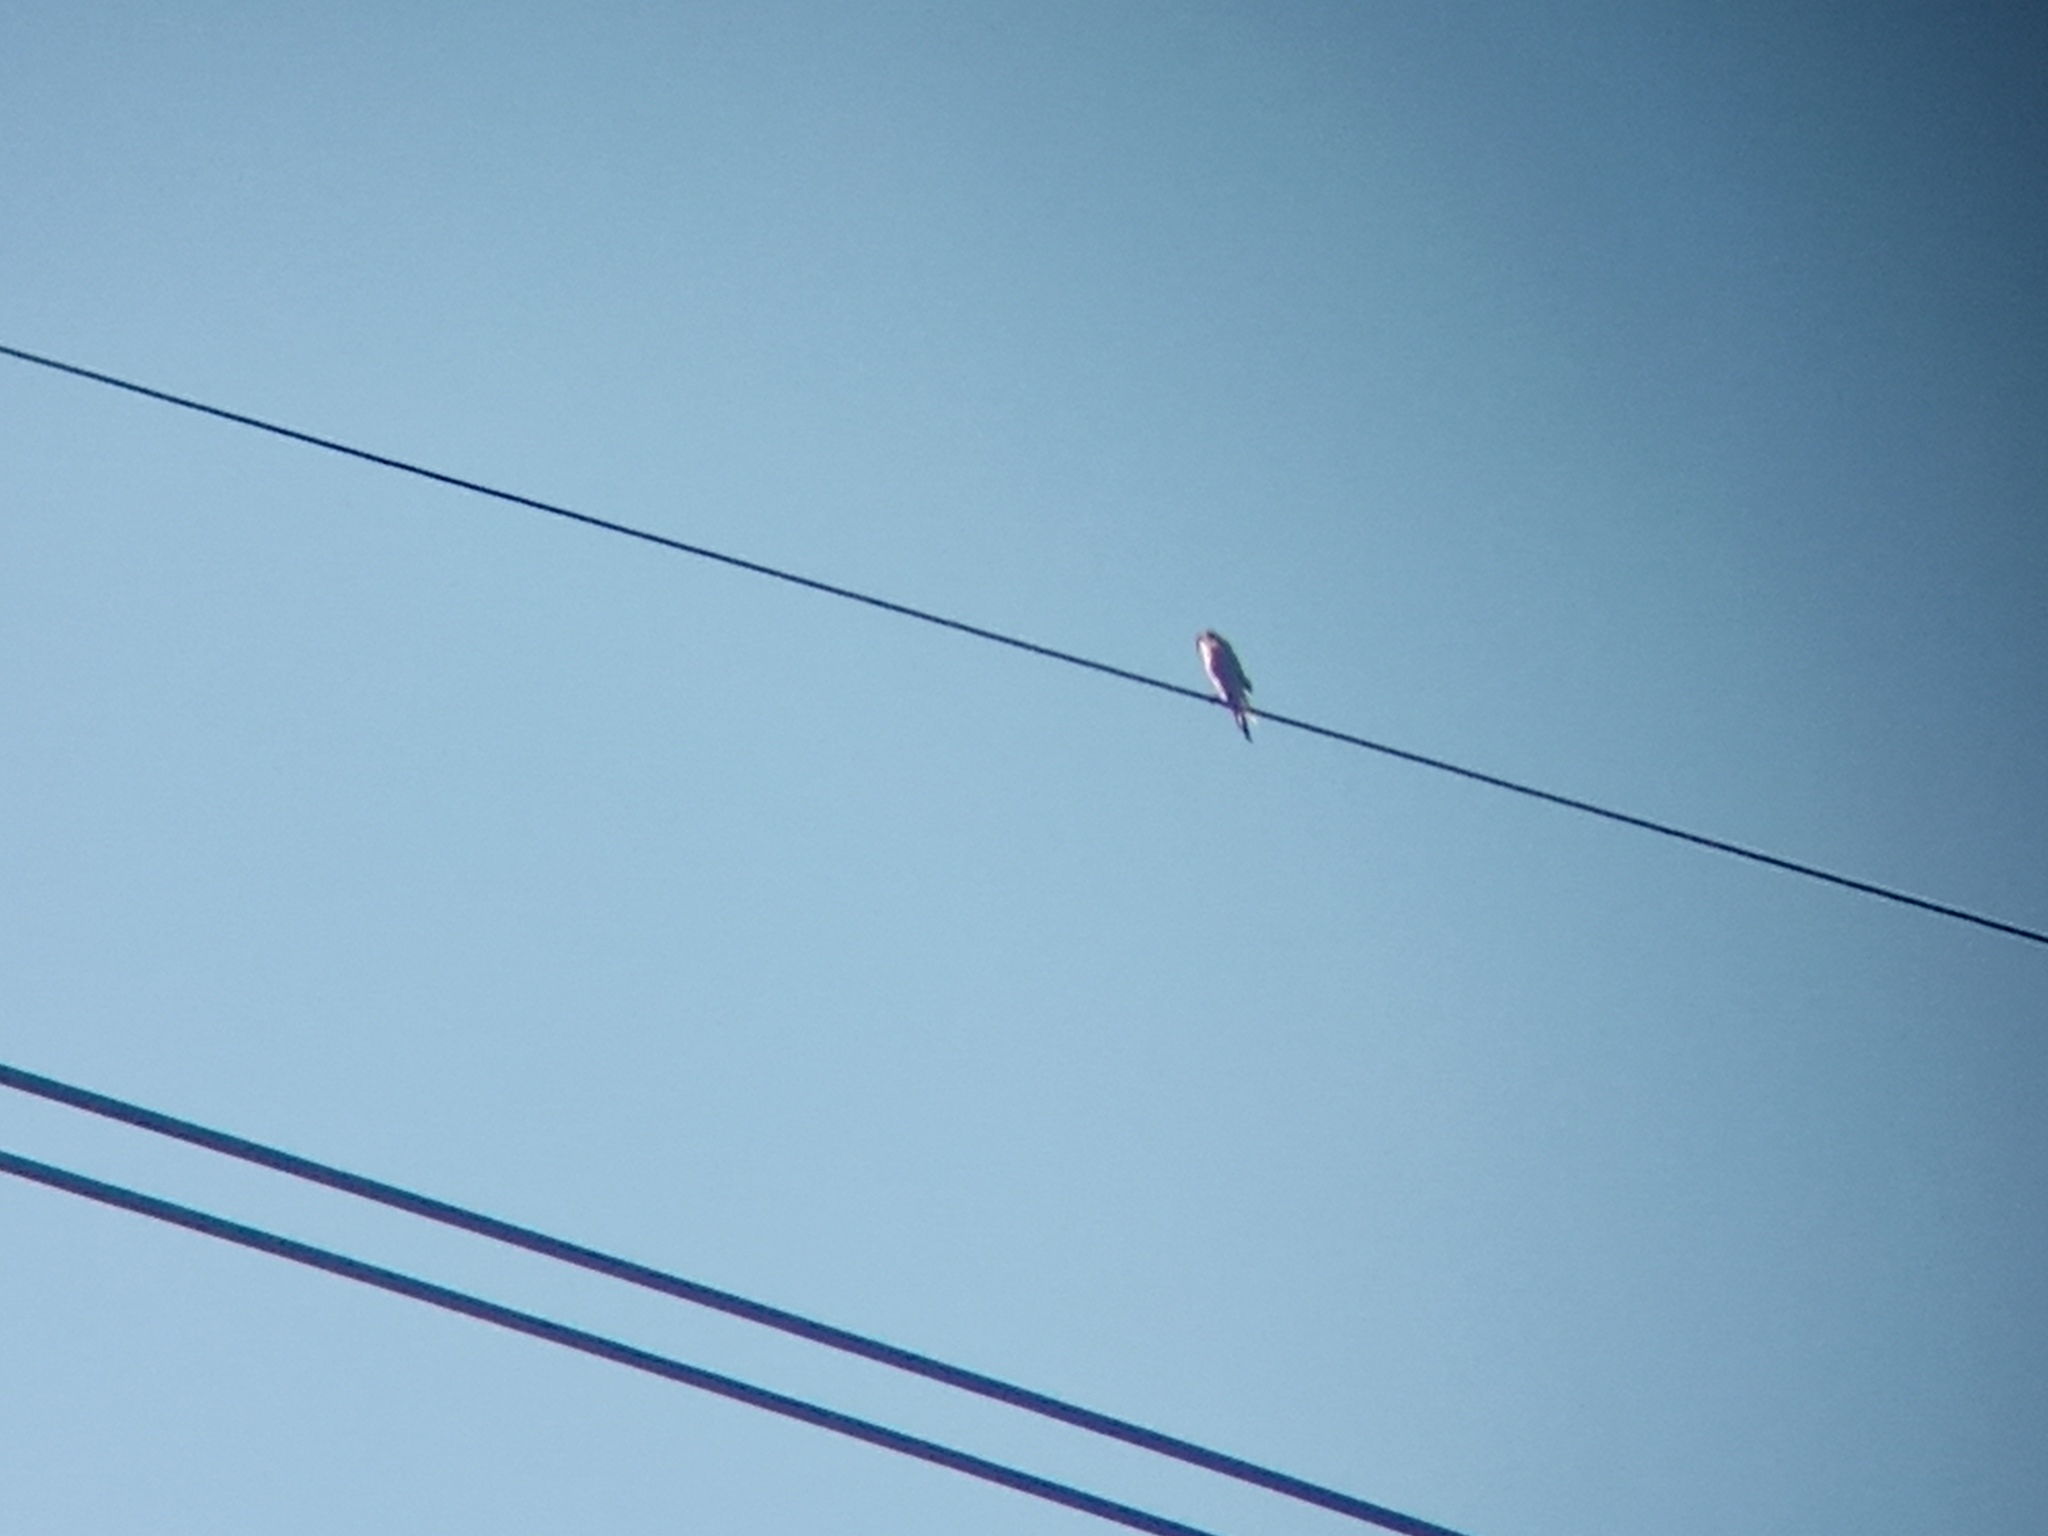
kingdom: Animalia
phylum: Chordata
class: Aves
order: Falconiformes
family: Falconidae
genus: Falco
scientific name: Falco sparverius
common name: American kestrel
